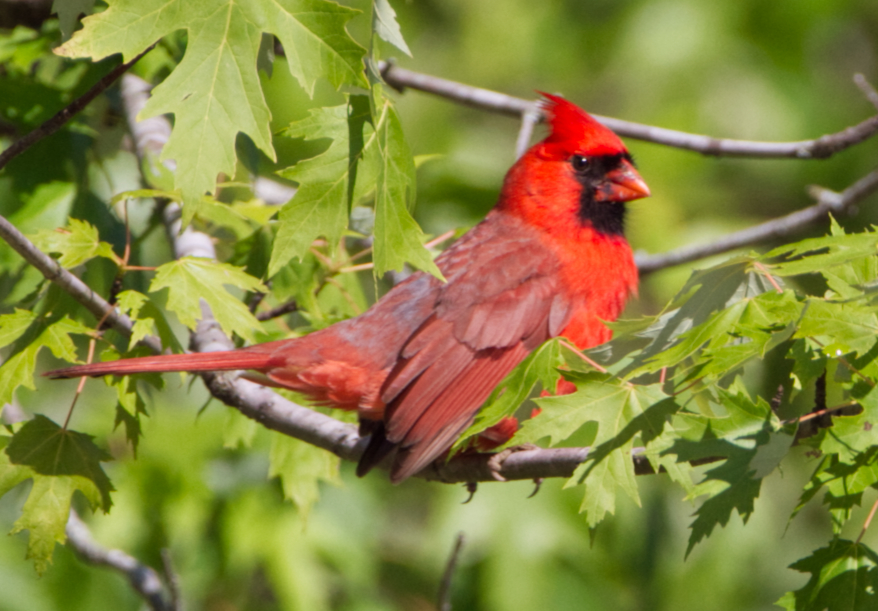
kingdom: Animalia
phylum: Chordata
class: Aves
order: Passeriformes
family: Cardinalidae
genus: Cardinalis
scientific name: Cardinalis cardinalis
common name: Northern cardinal
